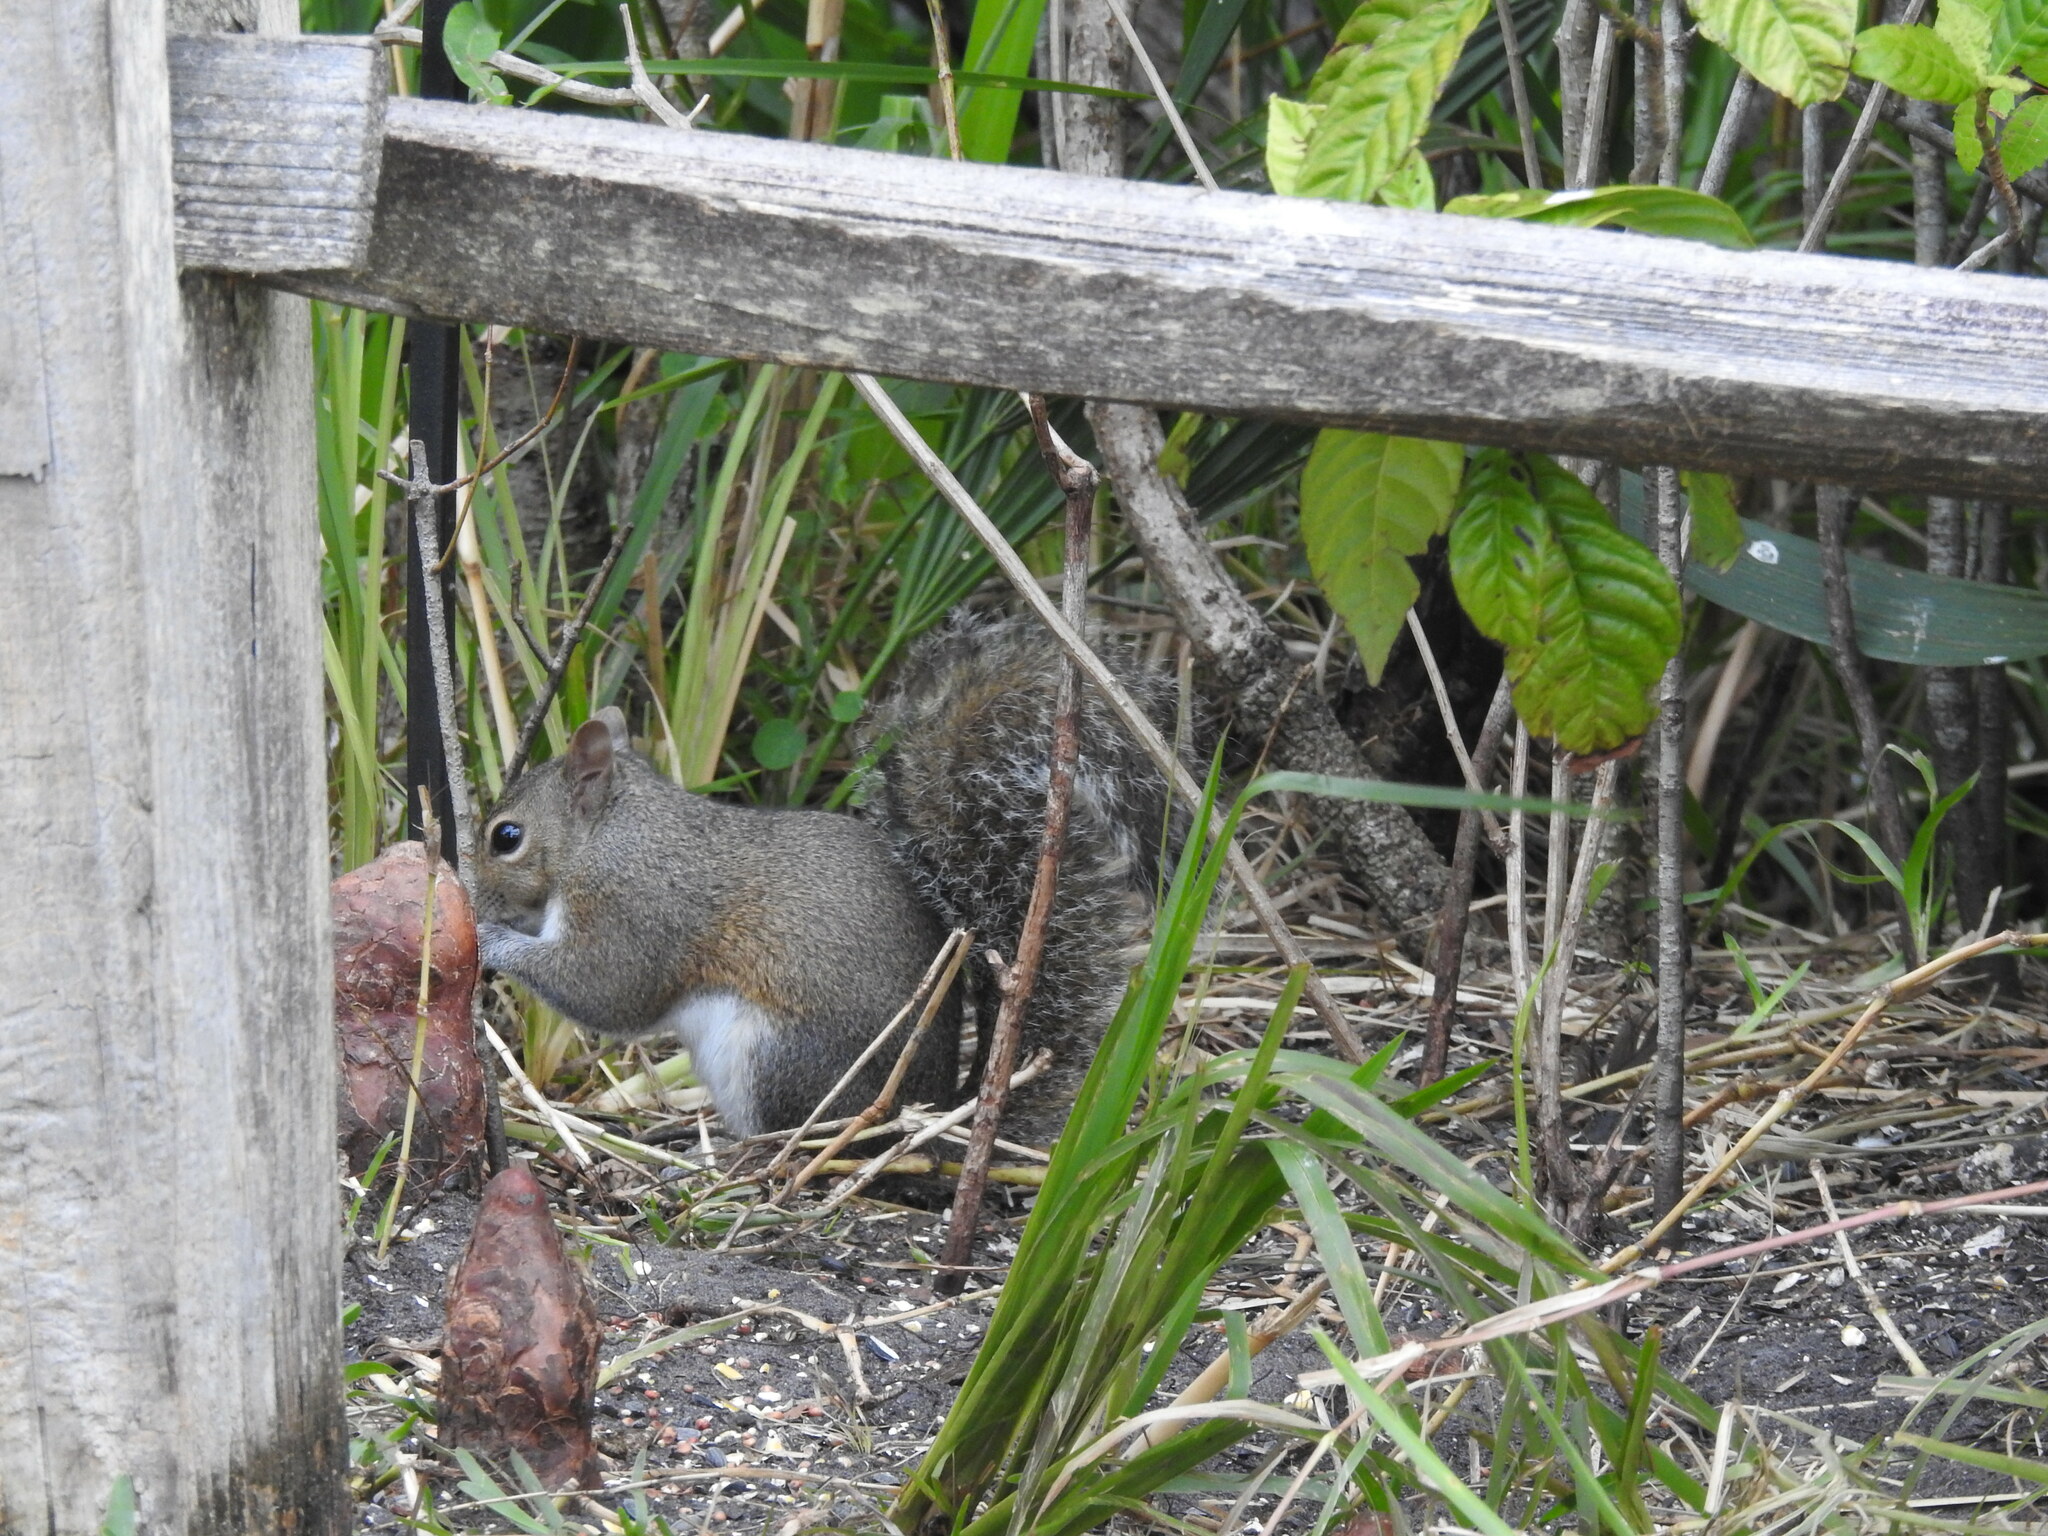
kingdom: Animalia
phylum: Chordata
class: Mammalia
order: Rodentia
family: Sciuridae
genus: Sciurus
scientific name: Sciurus carolinensis
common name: Eastern gray squirrel
